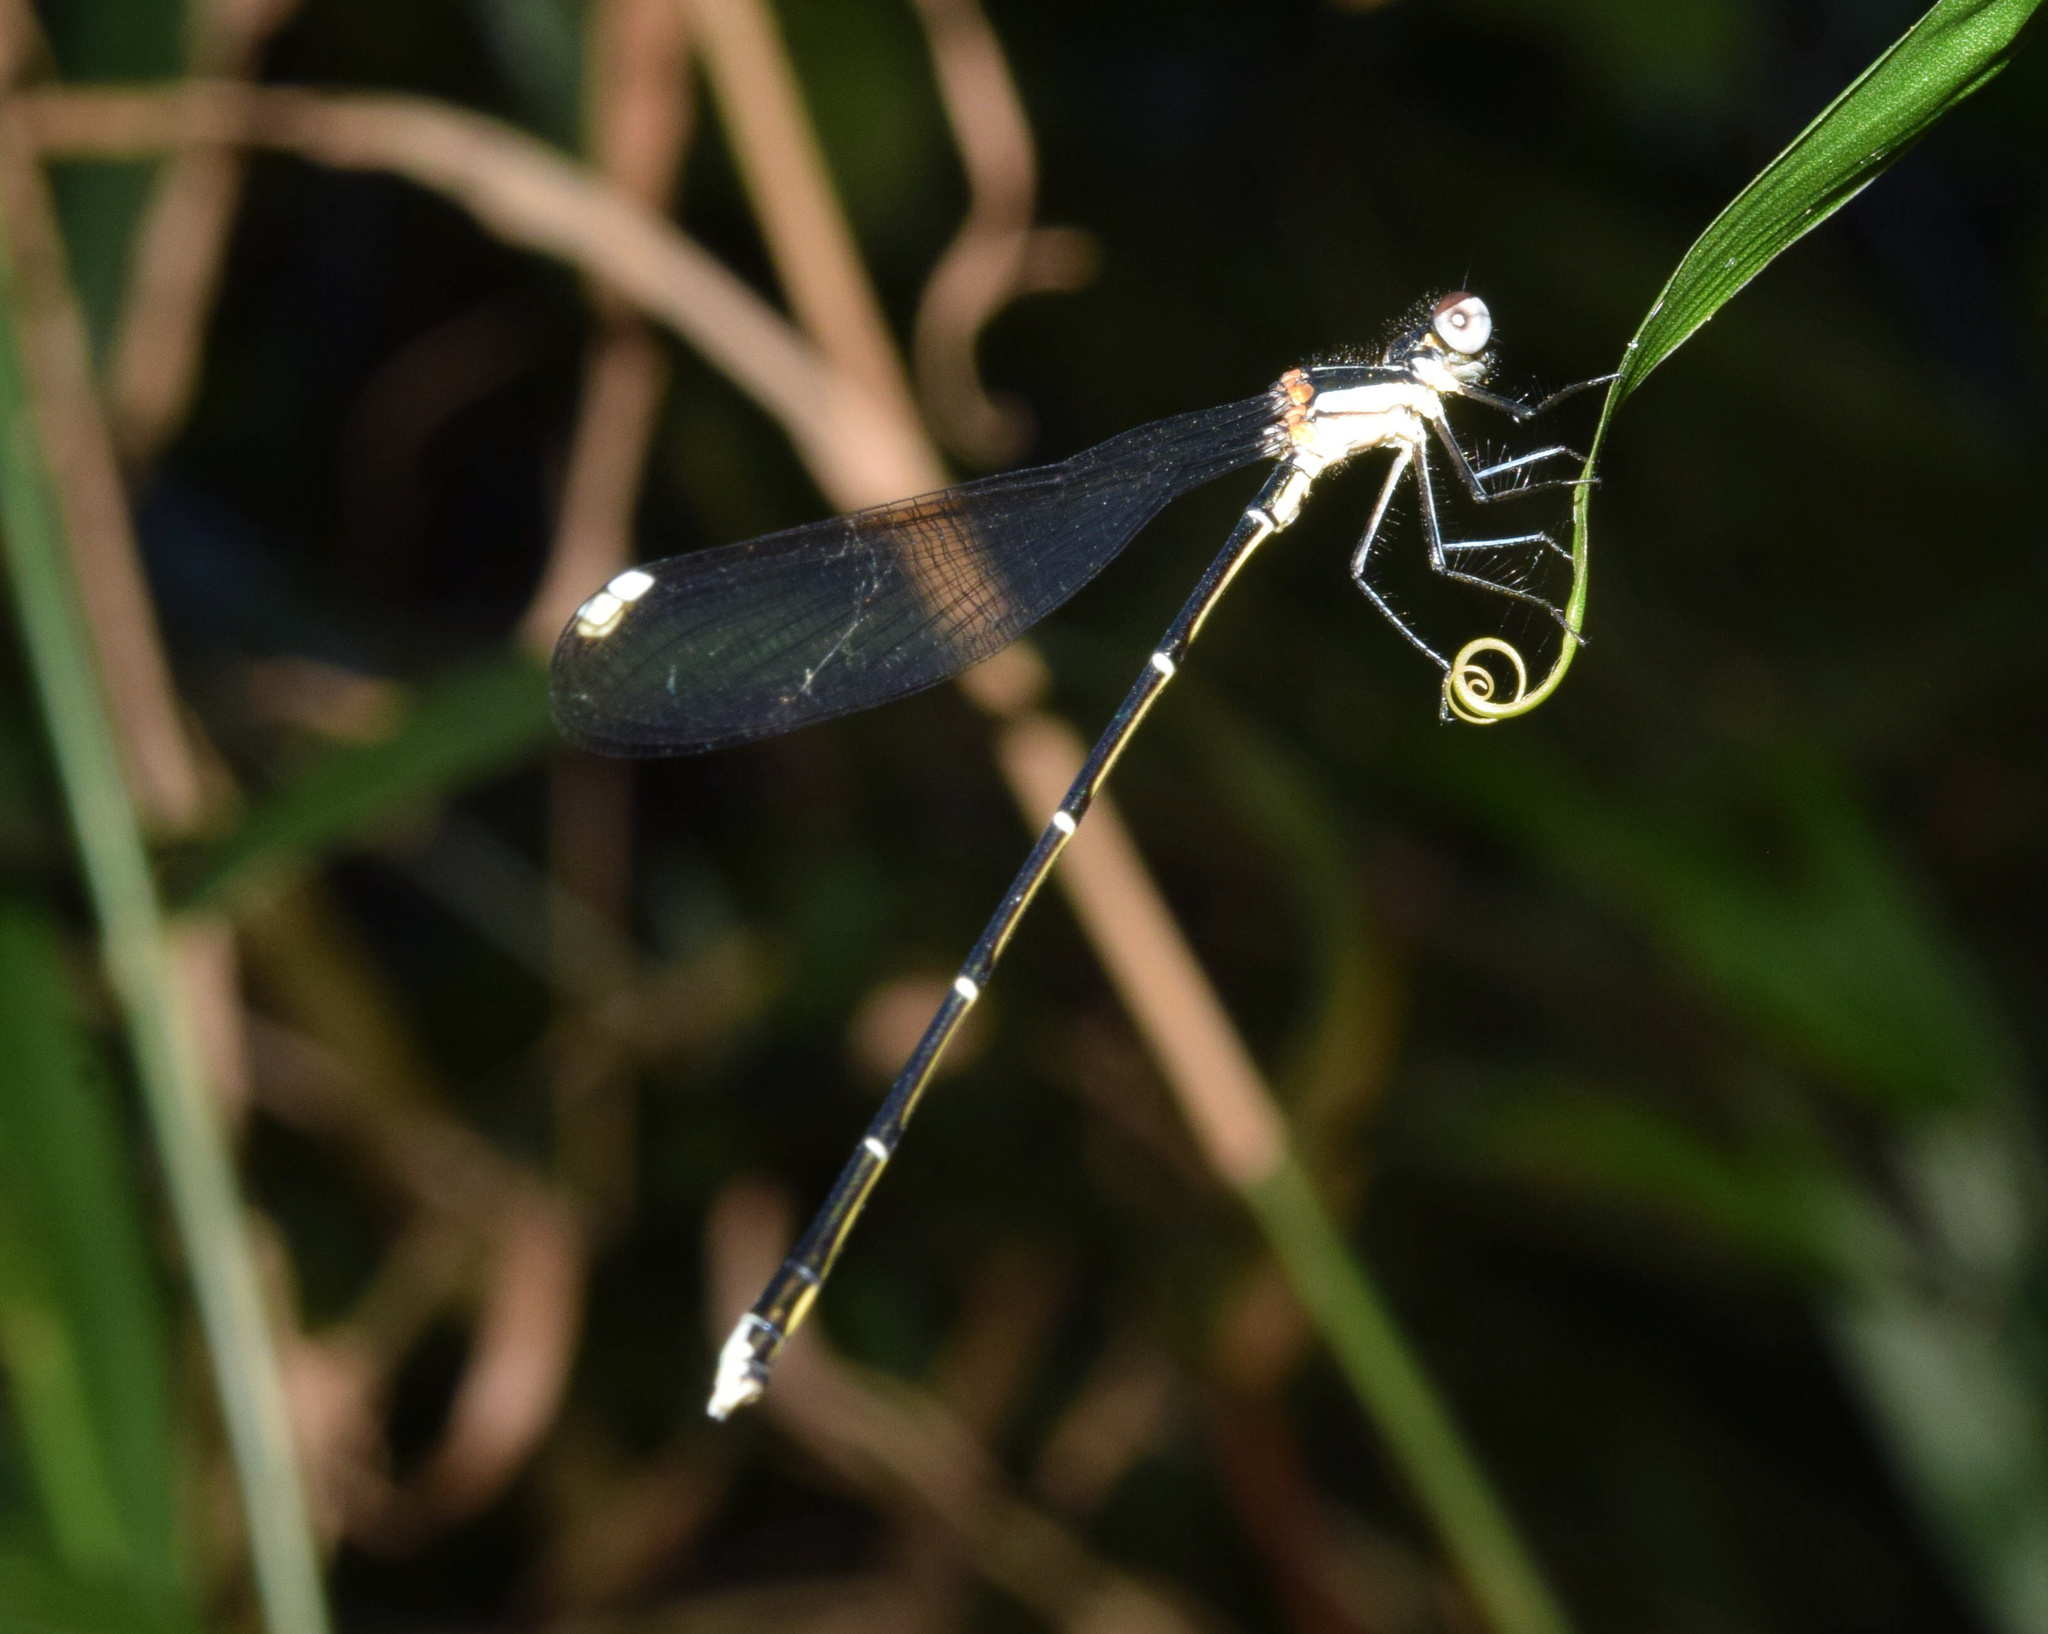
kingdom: Animalia
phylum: Arthropoda
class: Insecta
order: Odonata
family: Platycnemididae
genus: Allocnemis
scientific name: Allocnemis leucosticta
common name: Goldtail
